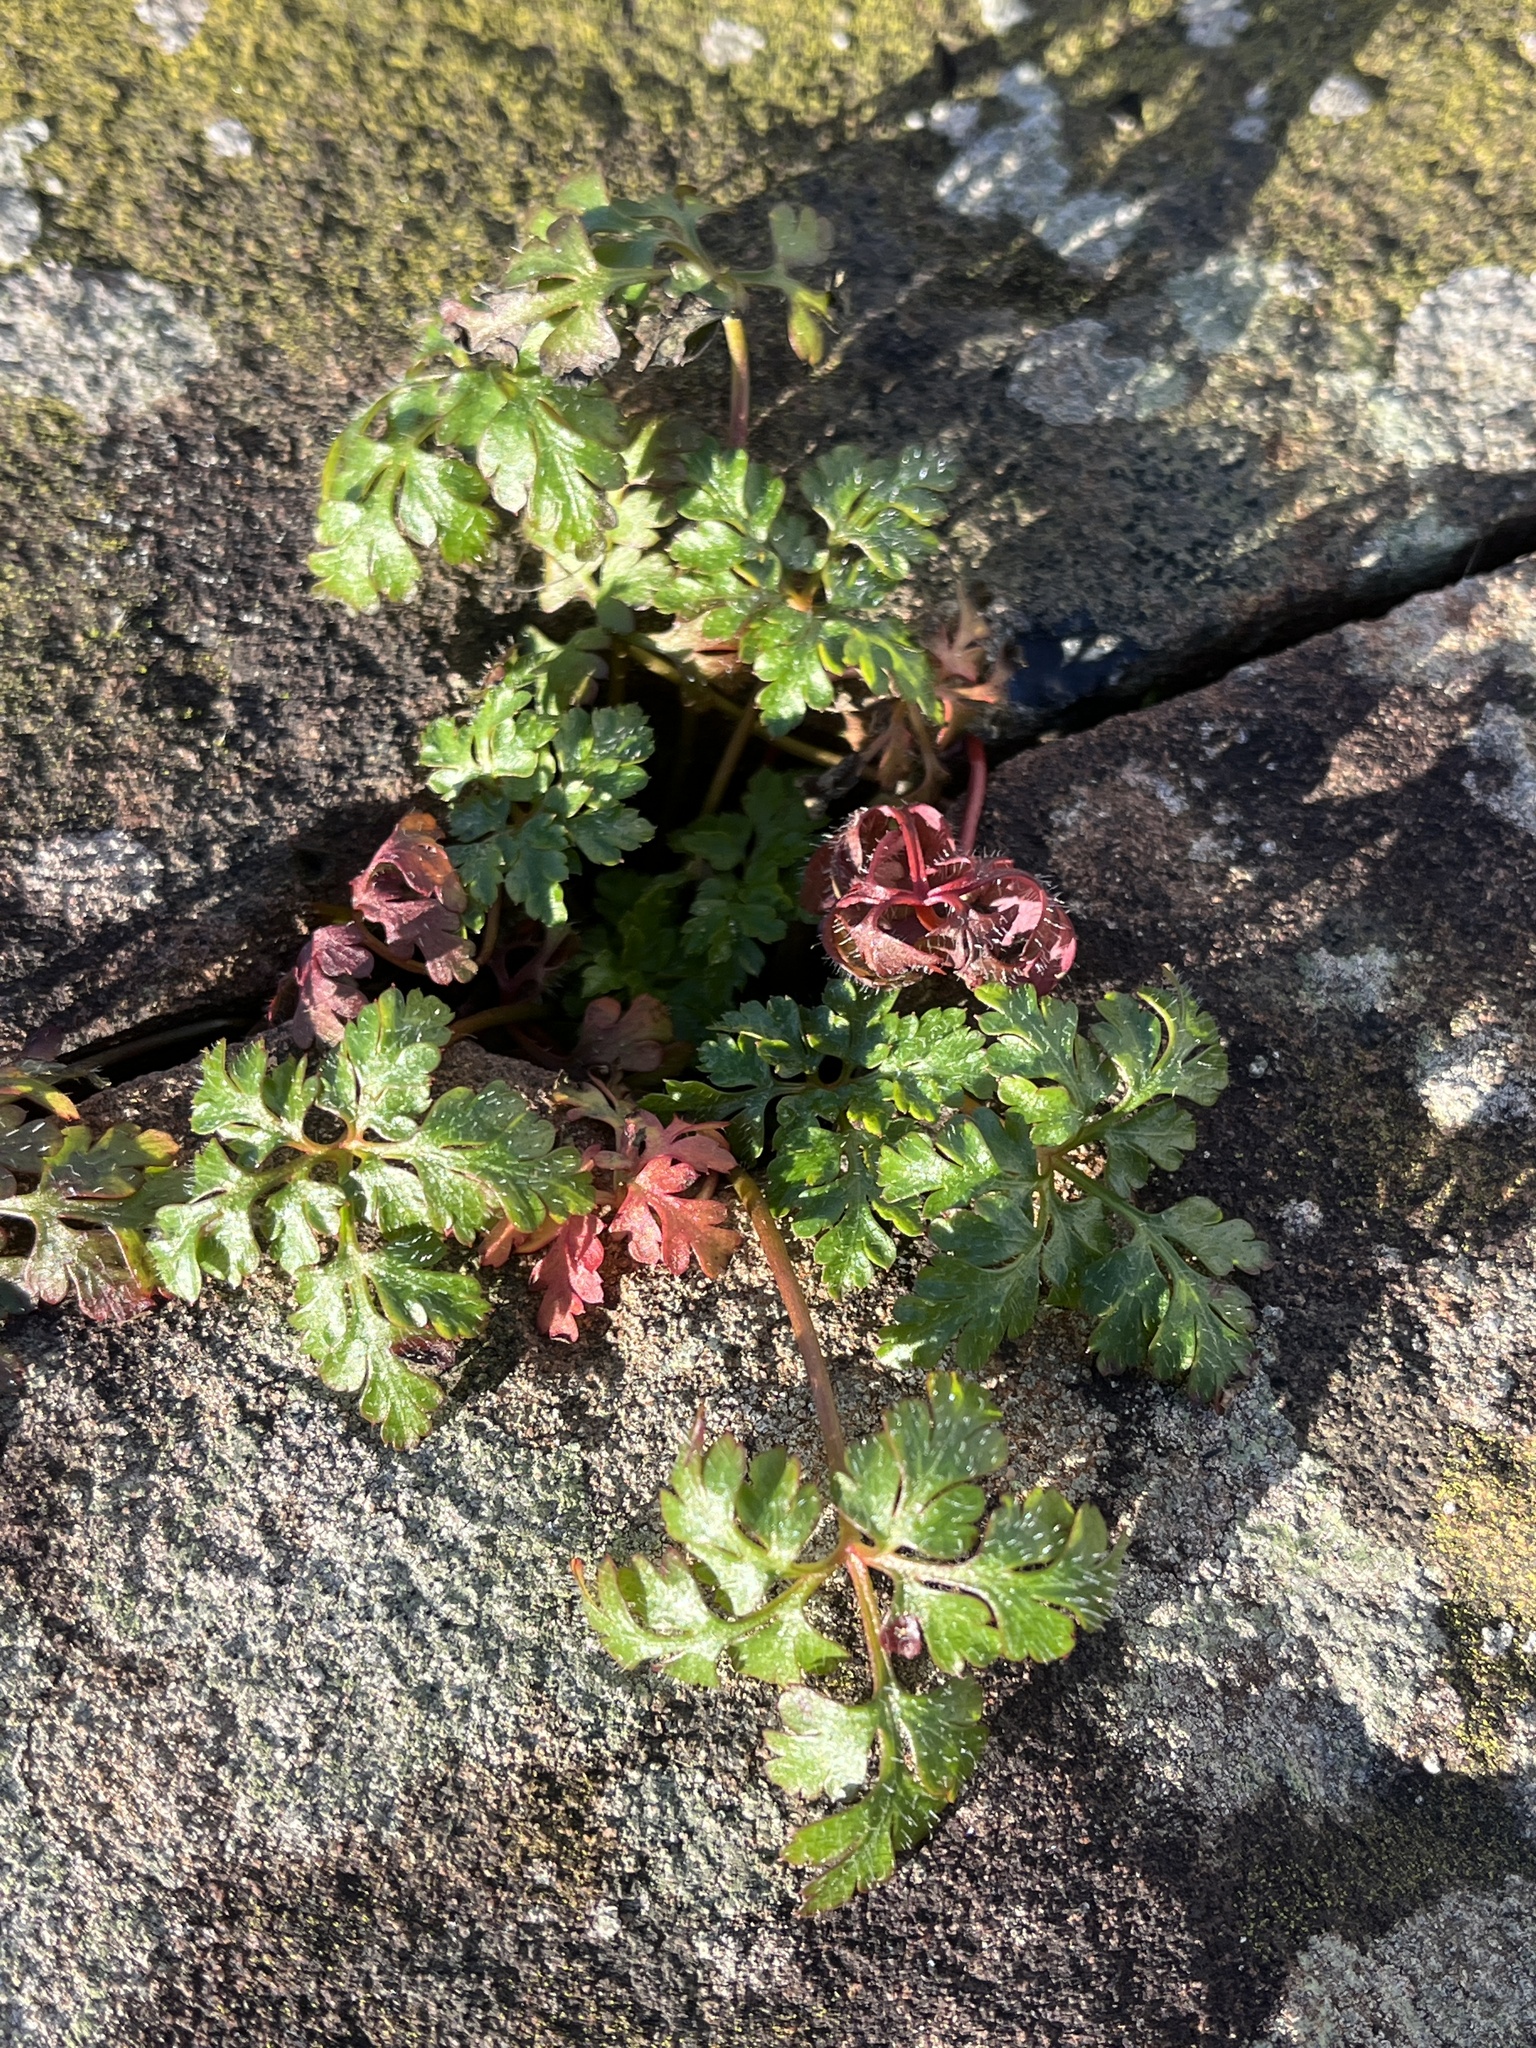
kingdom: Plantae
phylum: Tracheophyta
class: Magnoliopsida
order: Geraniales
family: Geraniaceae
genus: Geranium
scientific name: Geranium robertianum
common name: Herb-robert
